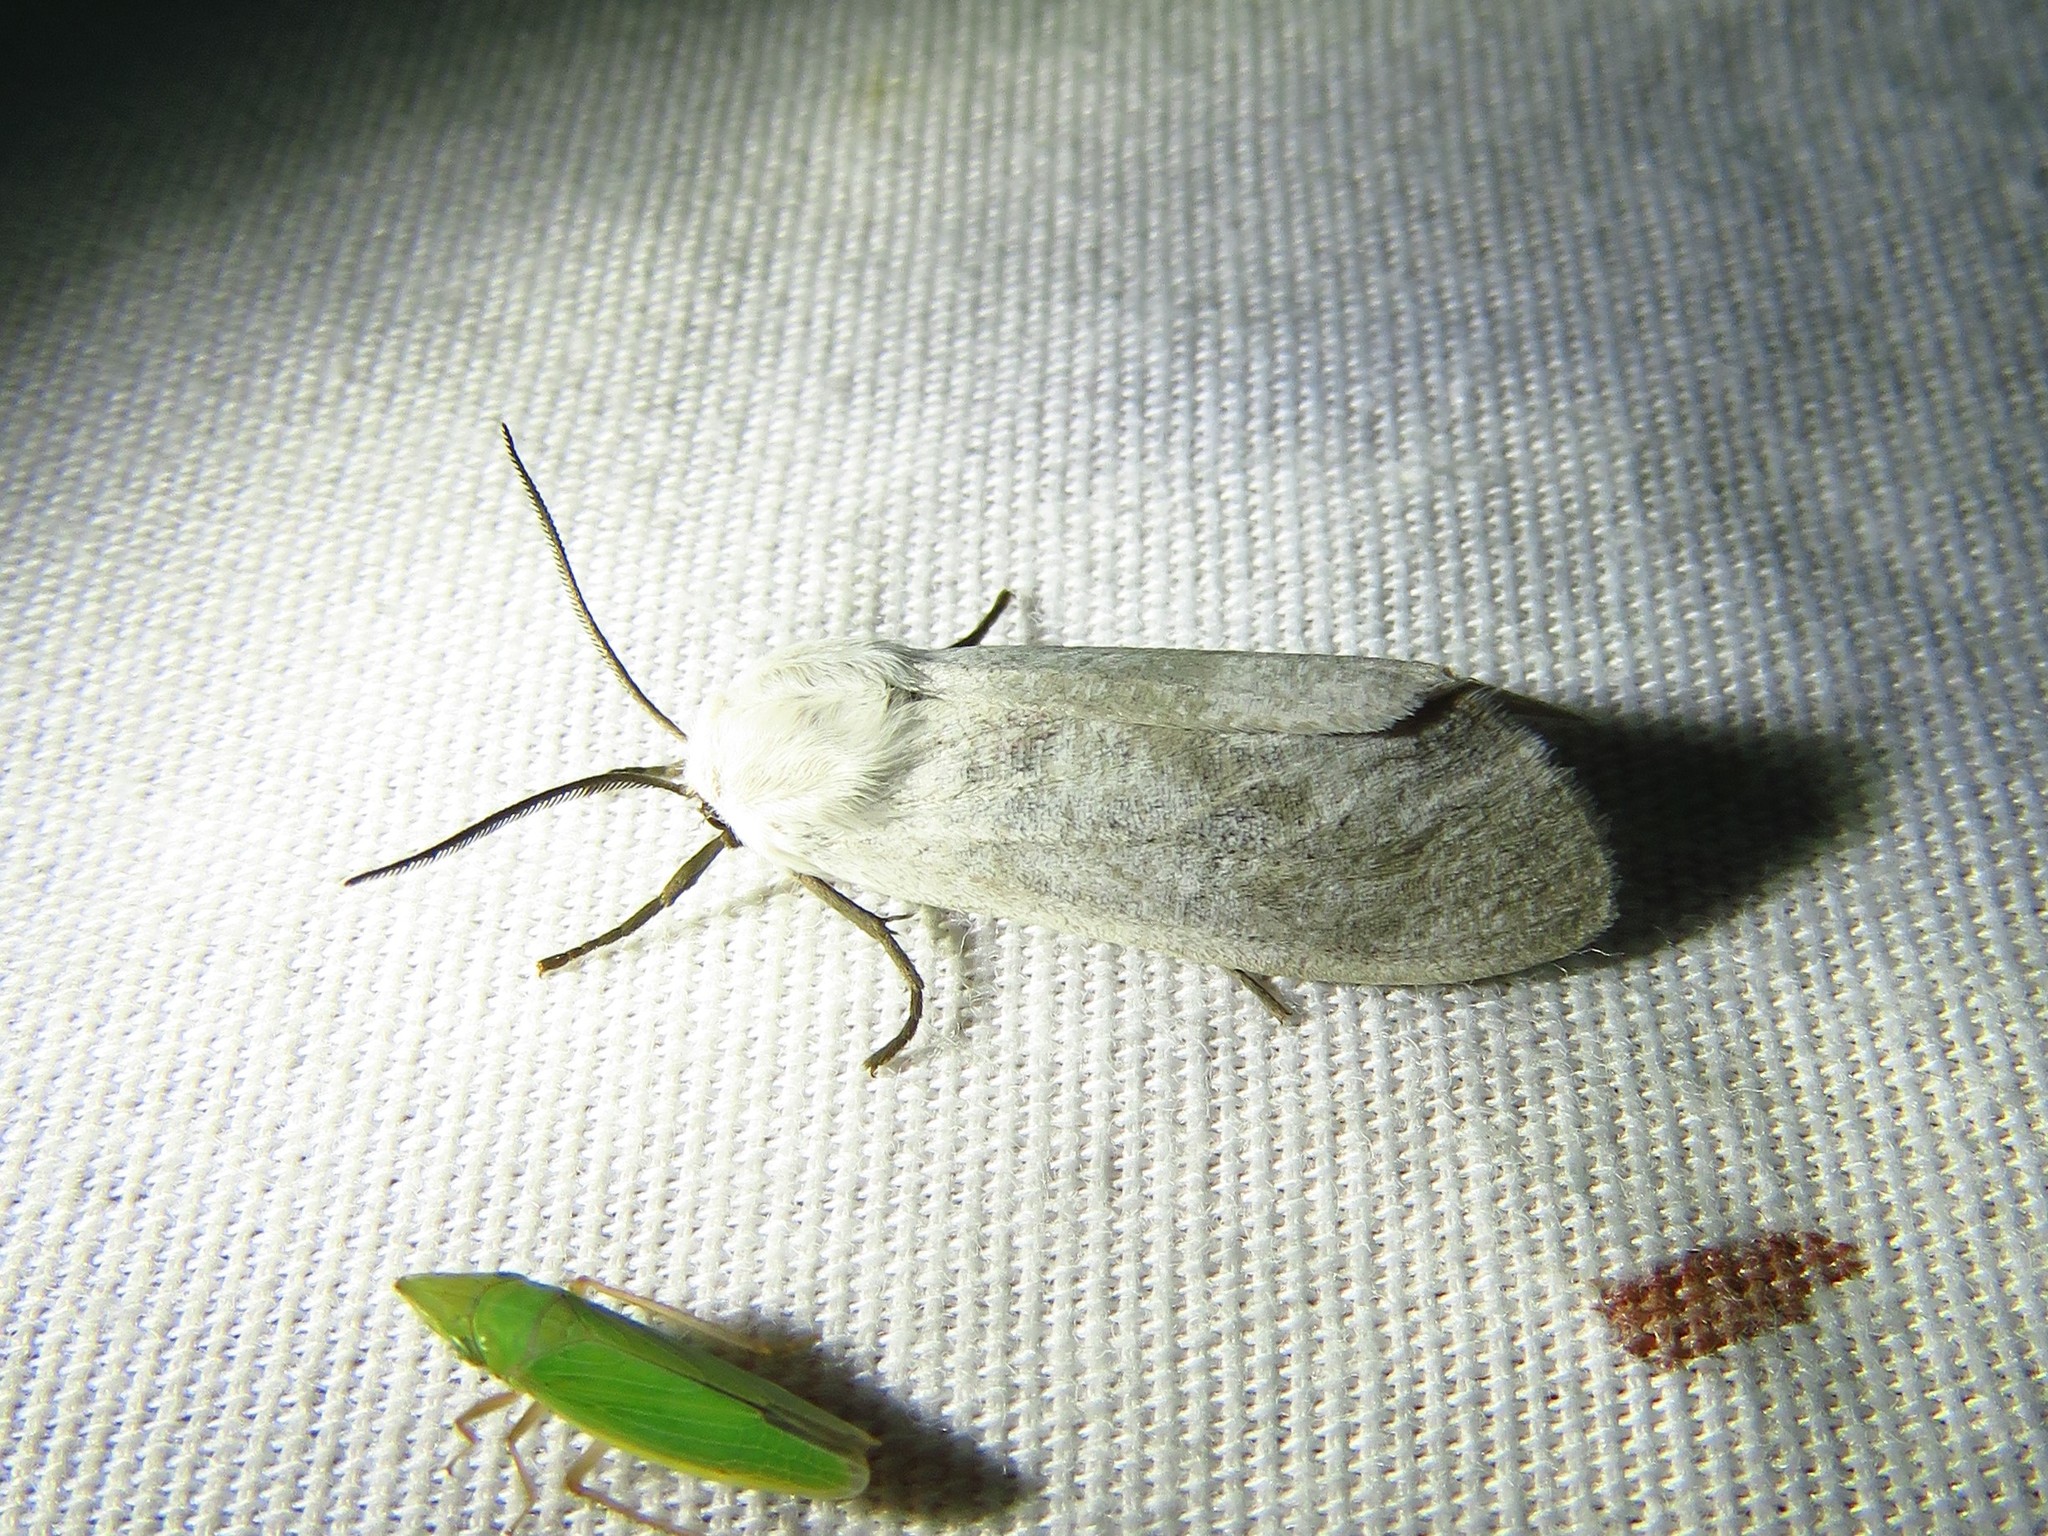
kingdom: Animalia
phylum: Arthropoda
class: Insecta
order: Lepidoptera
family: Erebidae
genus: Euchaetes
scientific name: Euchaetes bolteri
